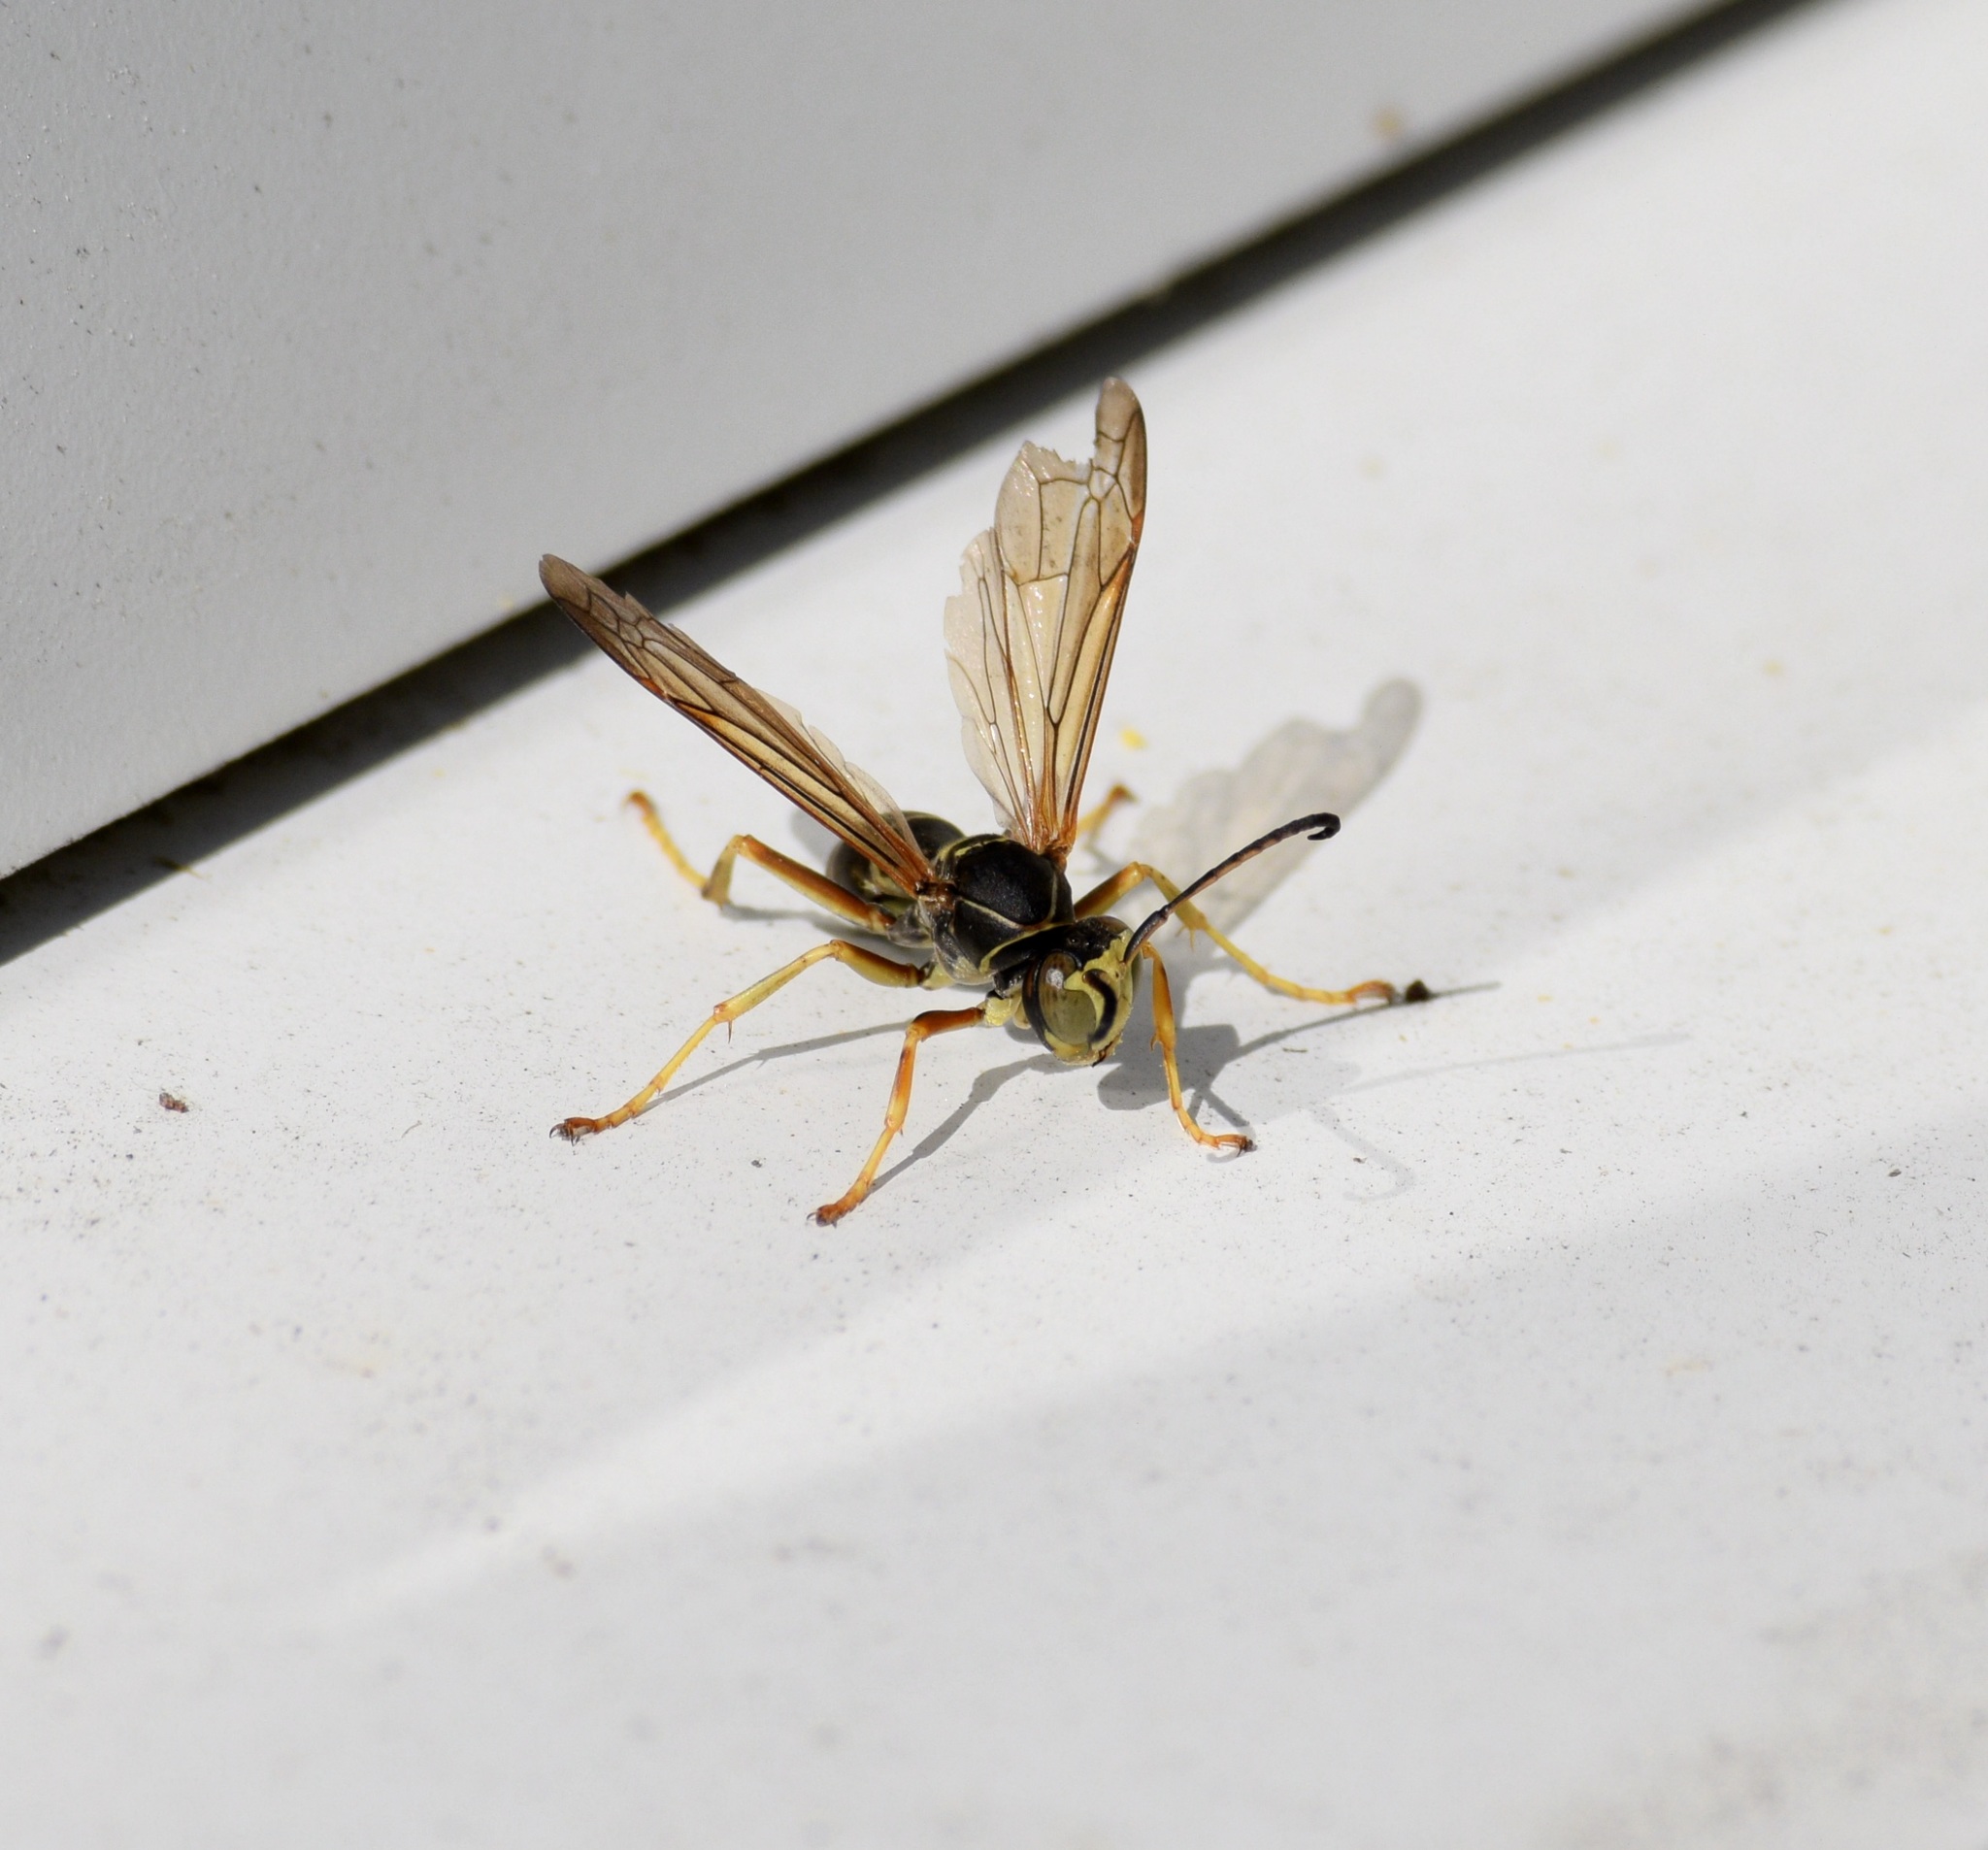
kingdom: Animalia
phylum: Arthropoda
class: Insecta
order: Hymenoptera
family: Eumenidae
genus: Polistes
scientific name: Polistes fuscatus
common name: Dark paper wasp
